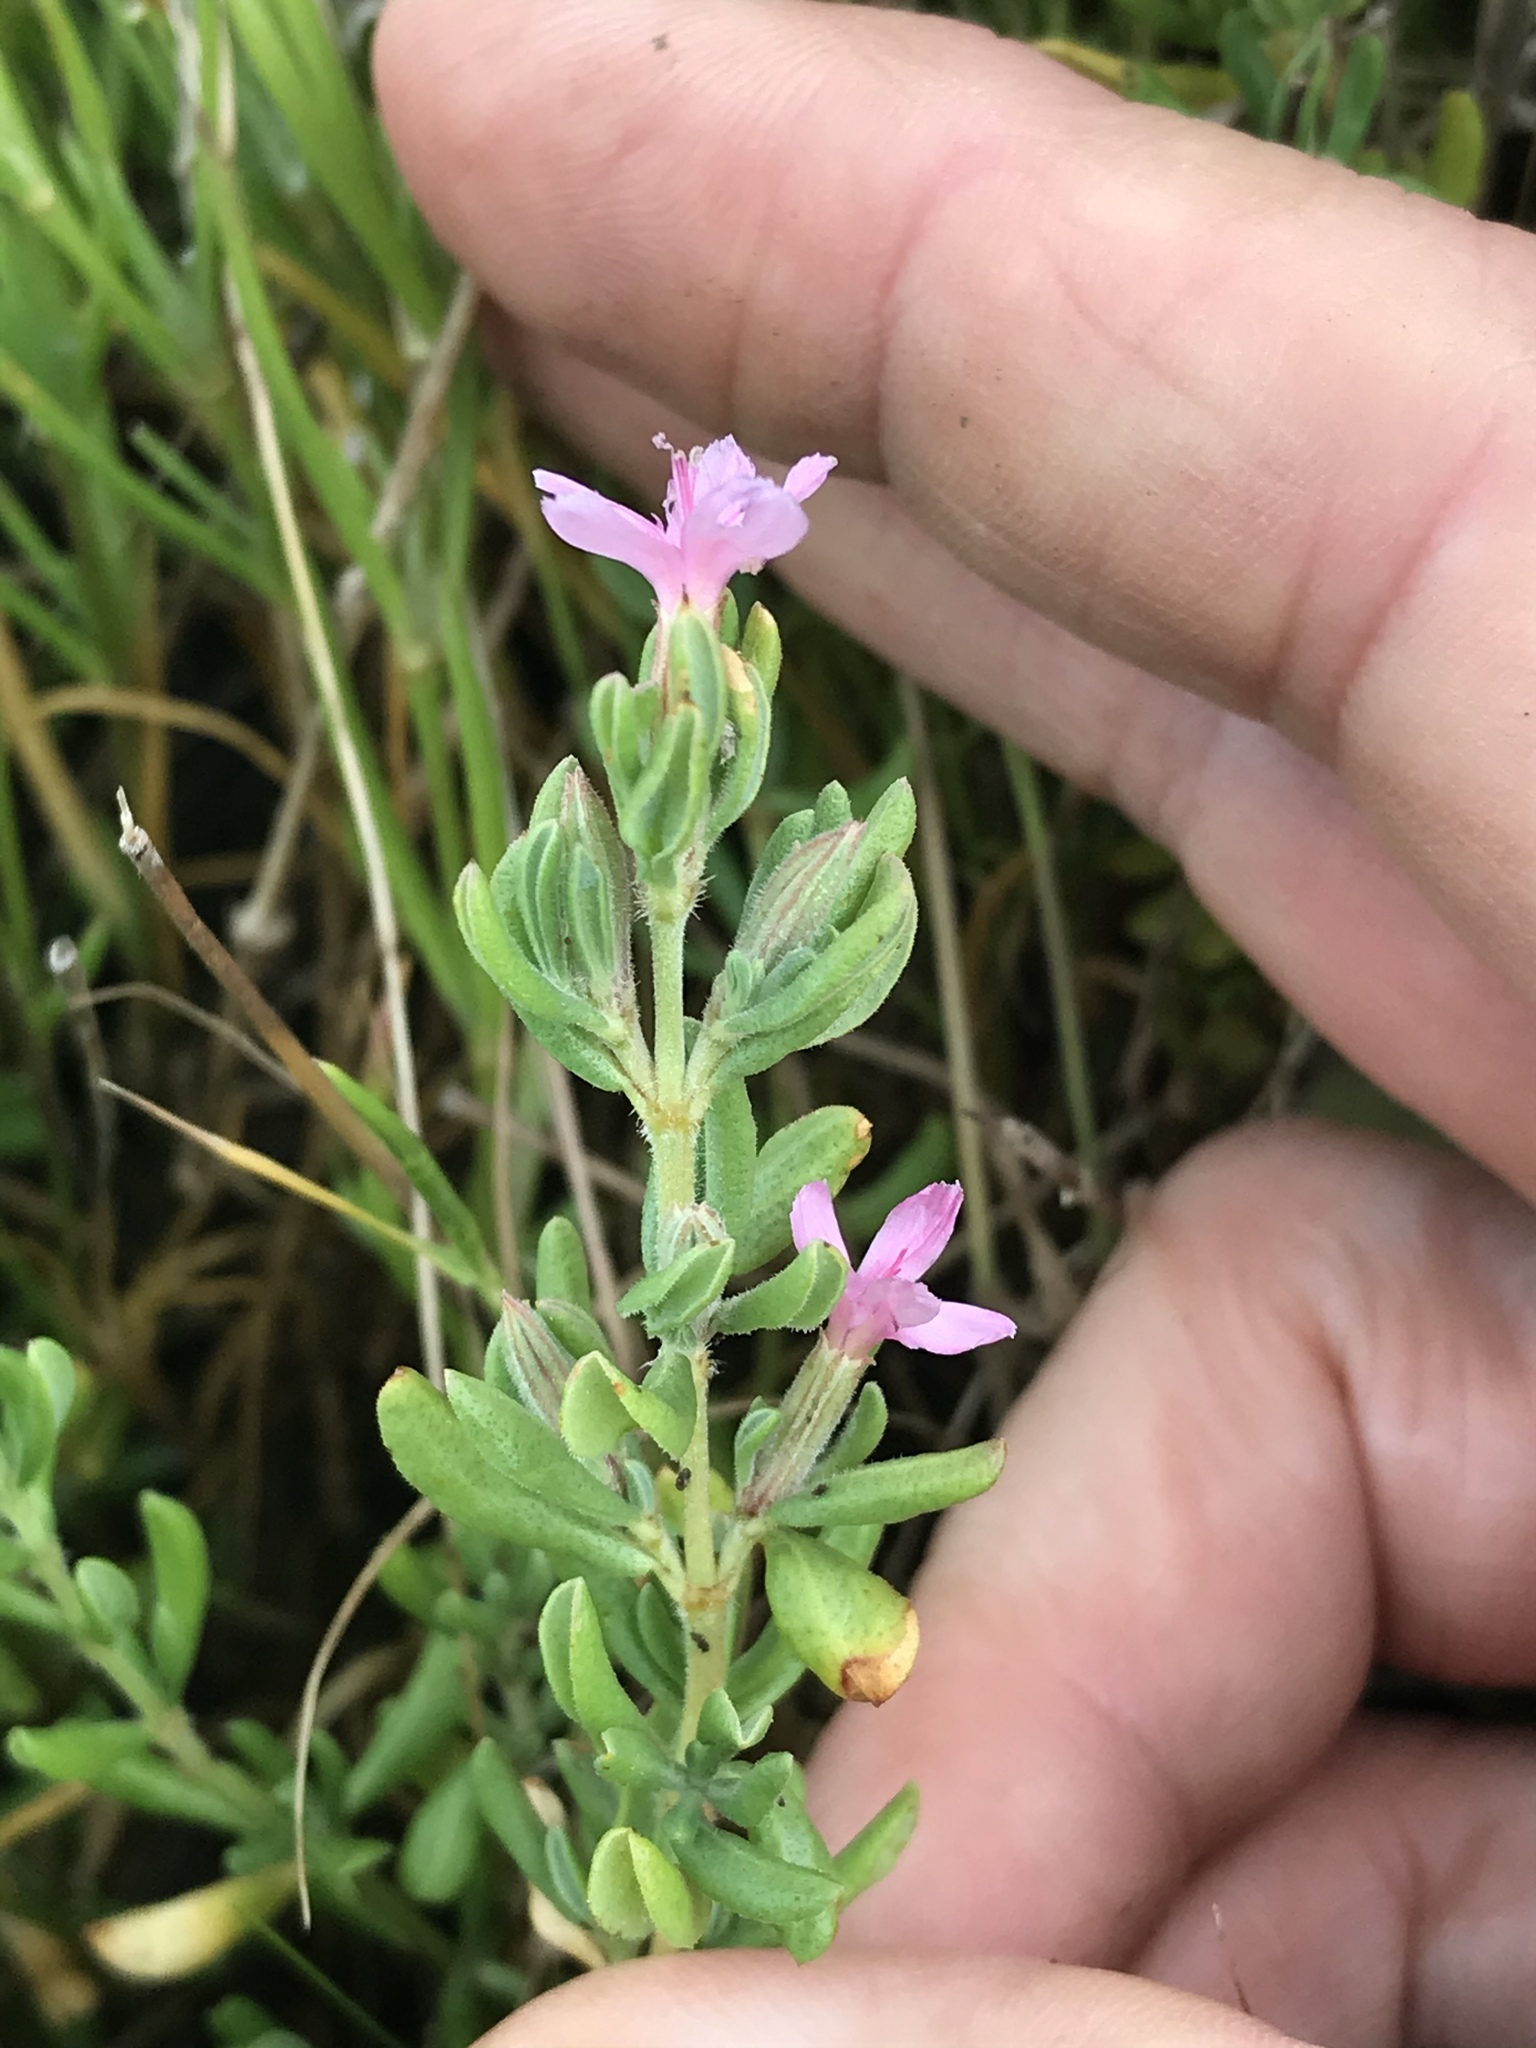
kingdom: Plantae
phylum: Tracheophyta
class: Magnoliopsida
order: Caryophyllales
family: Frankeniaceae
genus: Frankenia
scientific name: Frankenia salina
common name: Alkali seaheath
